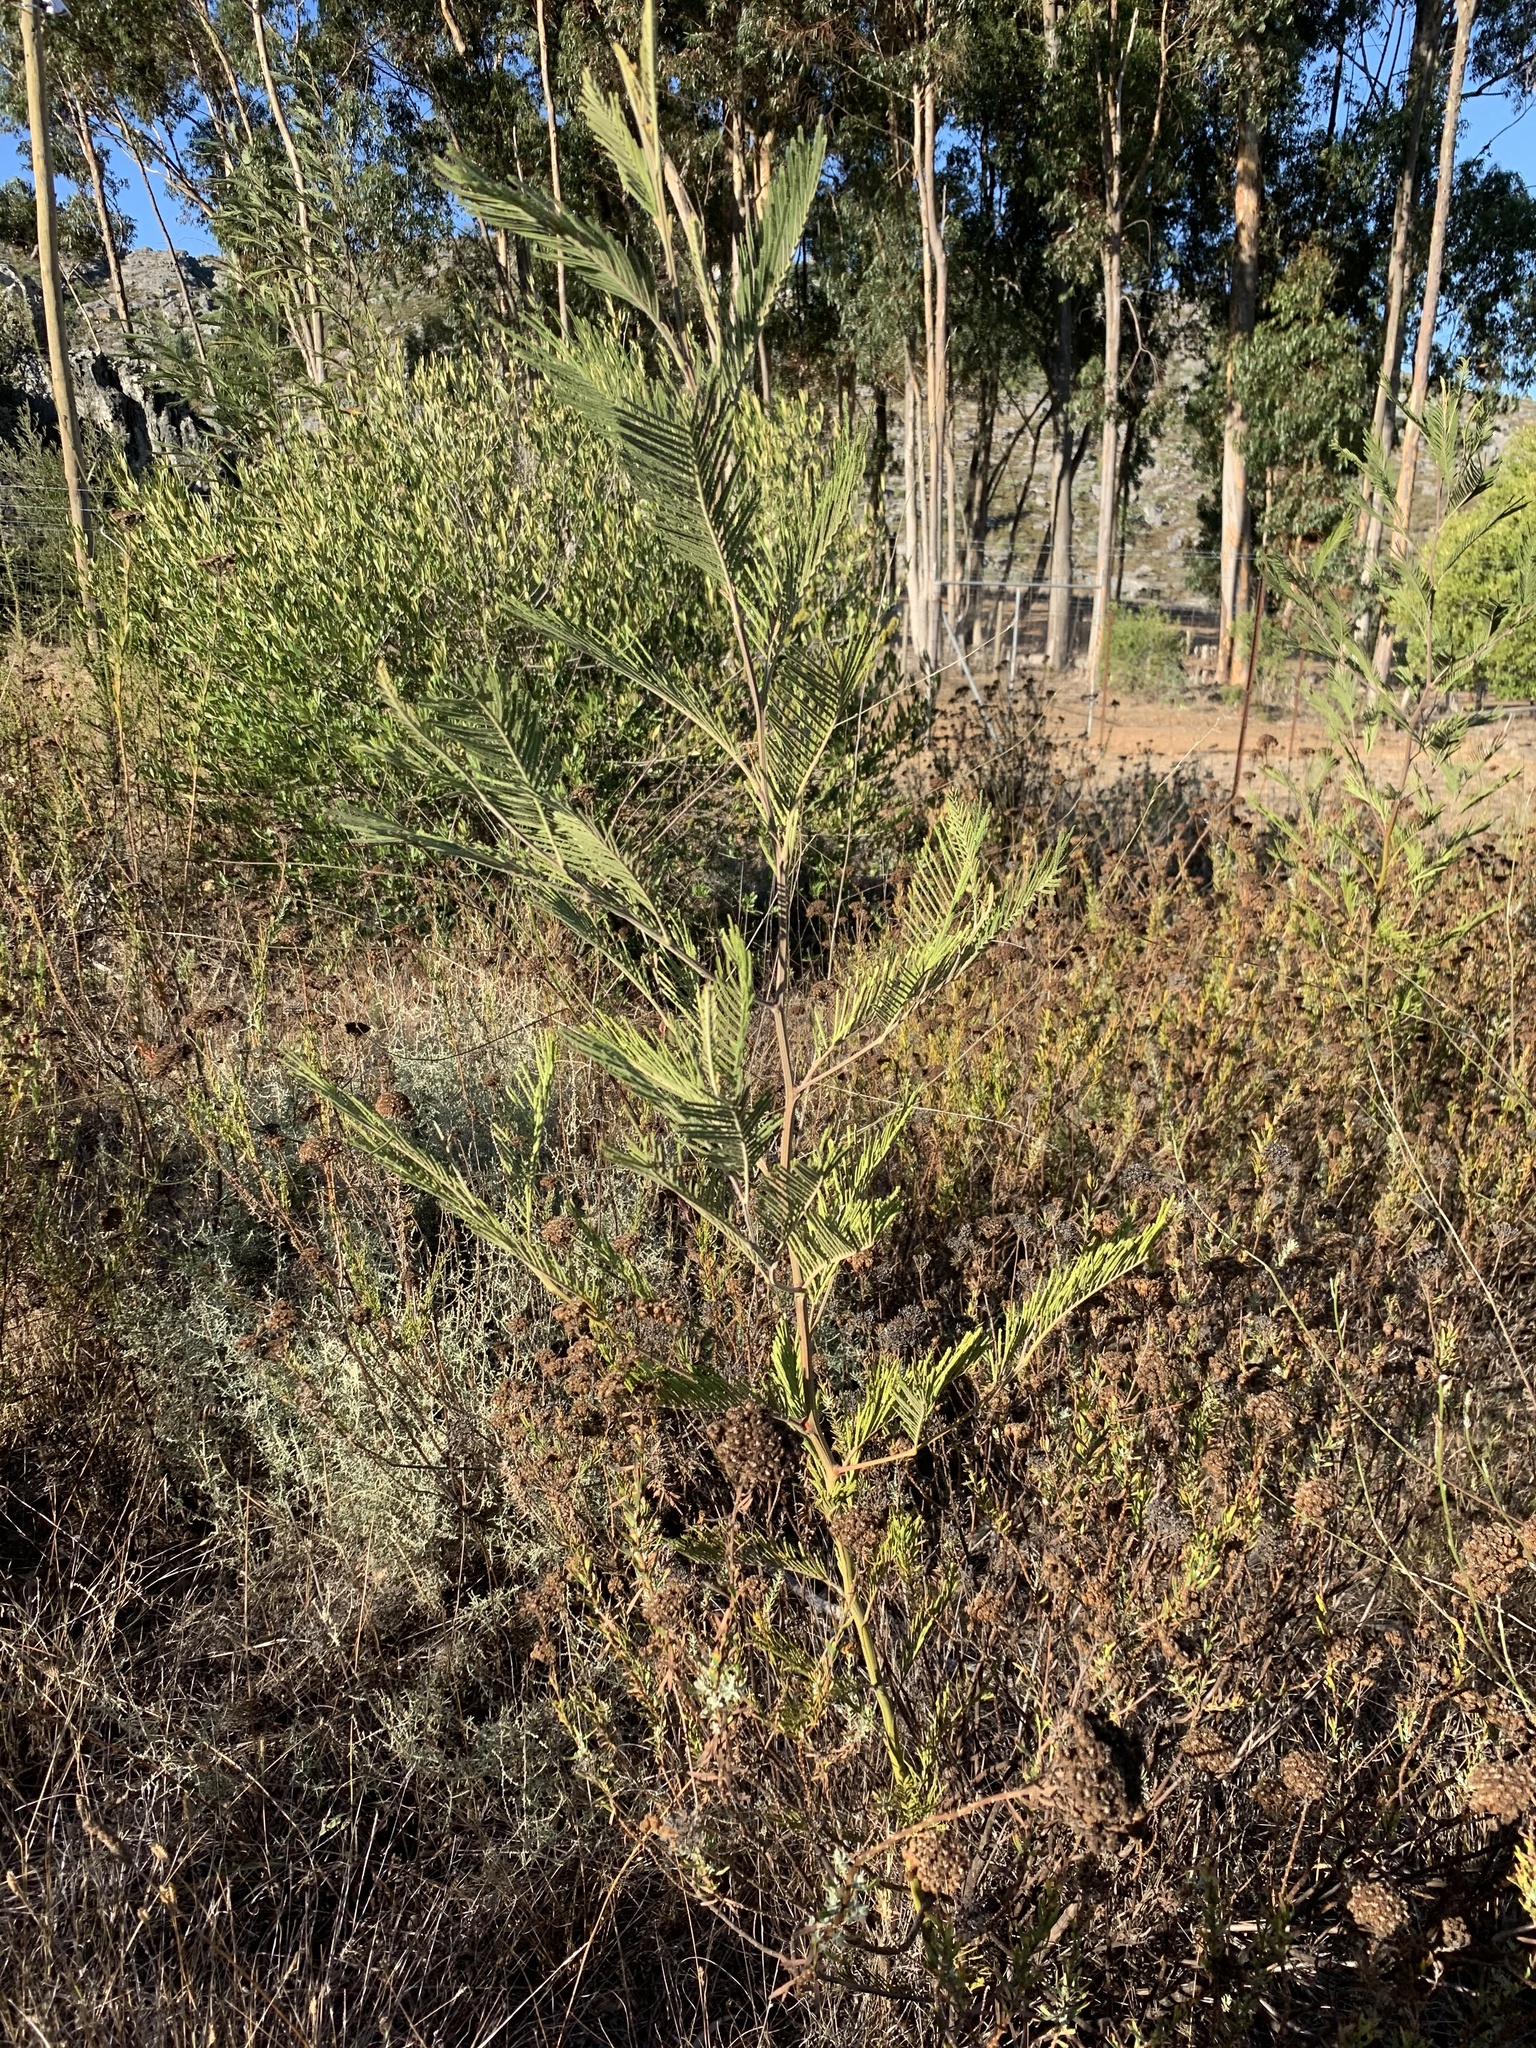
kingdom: Plantae
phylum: Tracheophyta
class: Magnoliopsida
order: Fabales
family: Fabaceae
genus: Acacia
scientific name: Acacia mearnsii
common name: Black wattle
